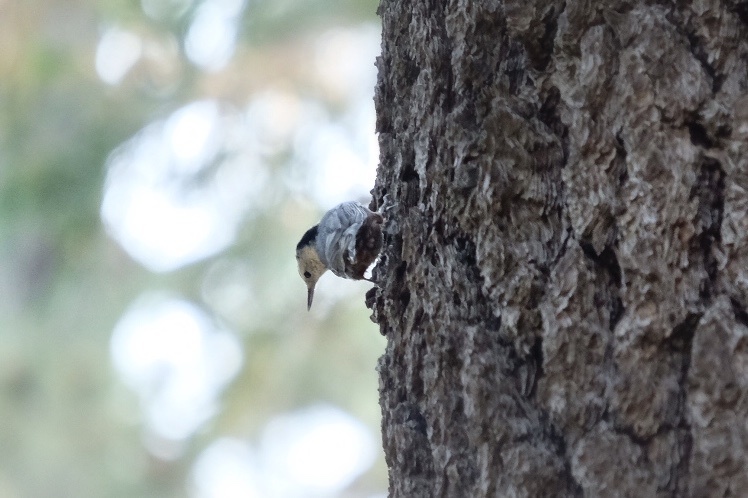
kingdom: Animalia
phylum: Chordata
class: Aves
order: Passeriformes
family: Sittidae
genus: Sitta
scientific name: Sitta carolinensis
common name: White-breasted nuthatch
